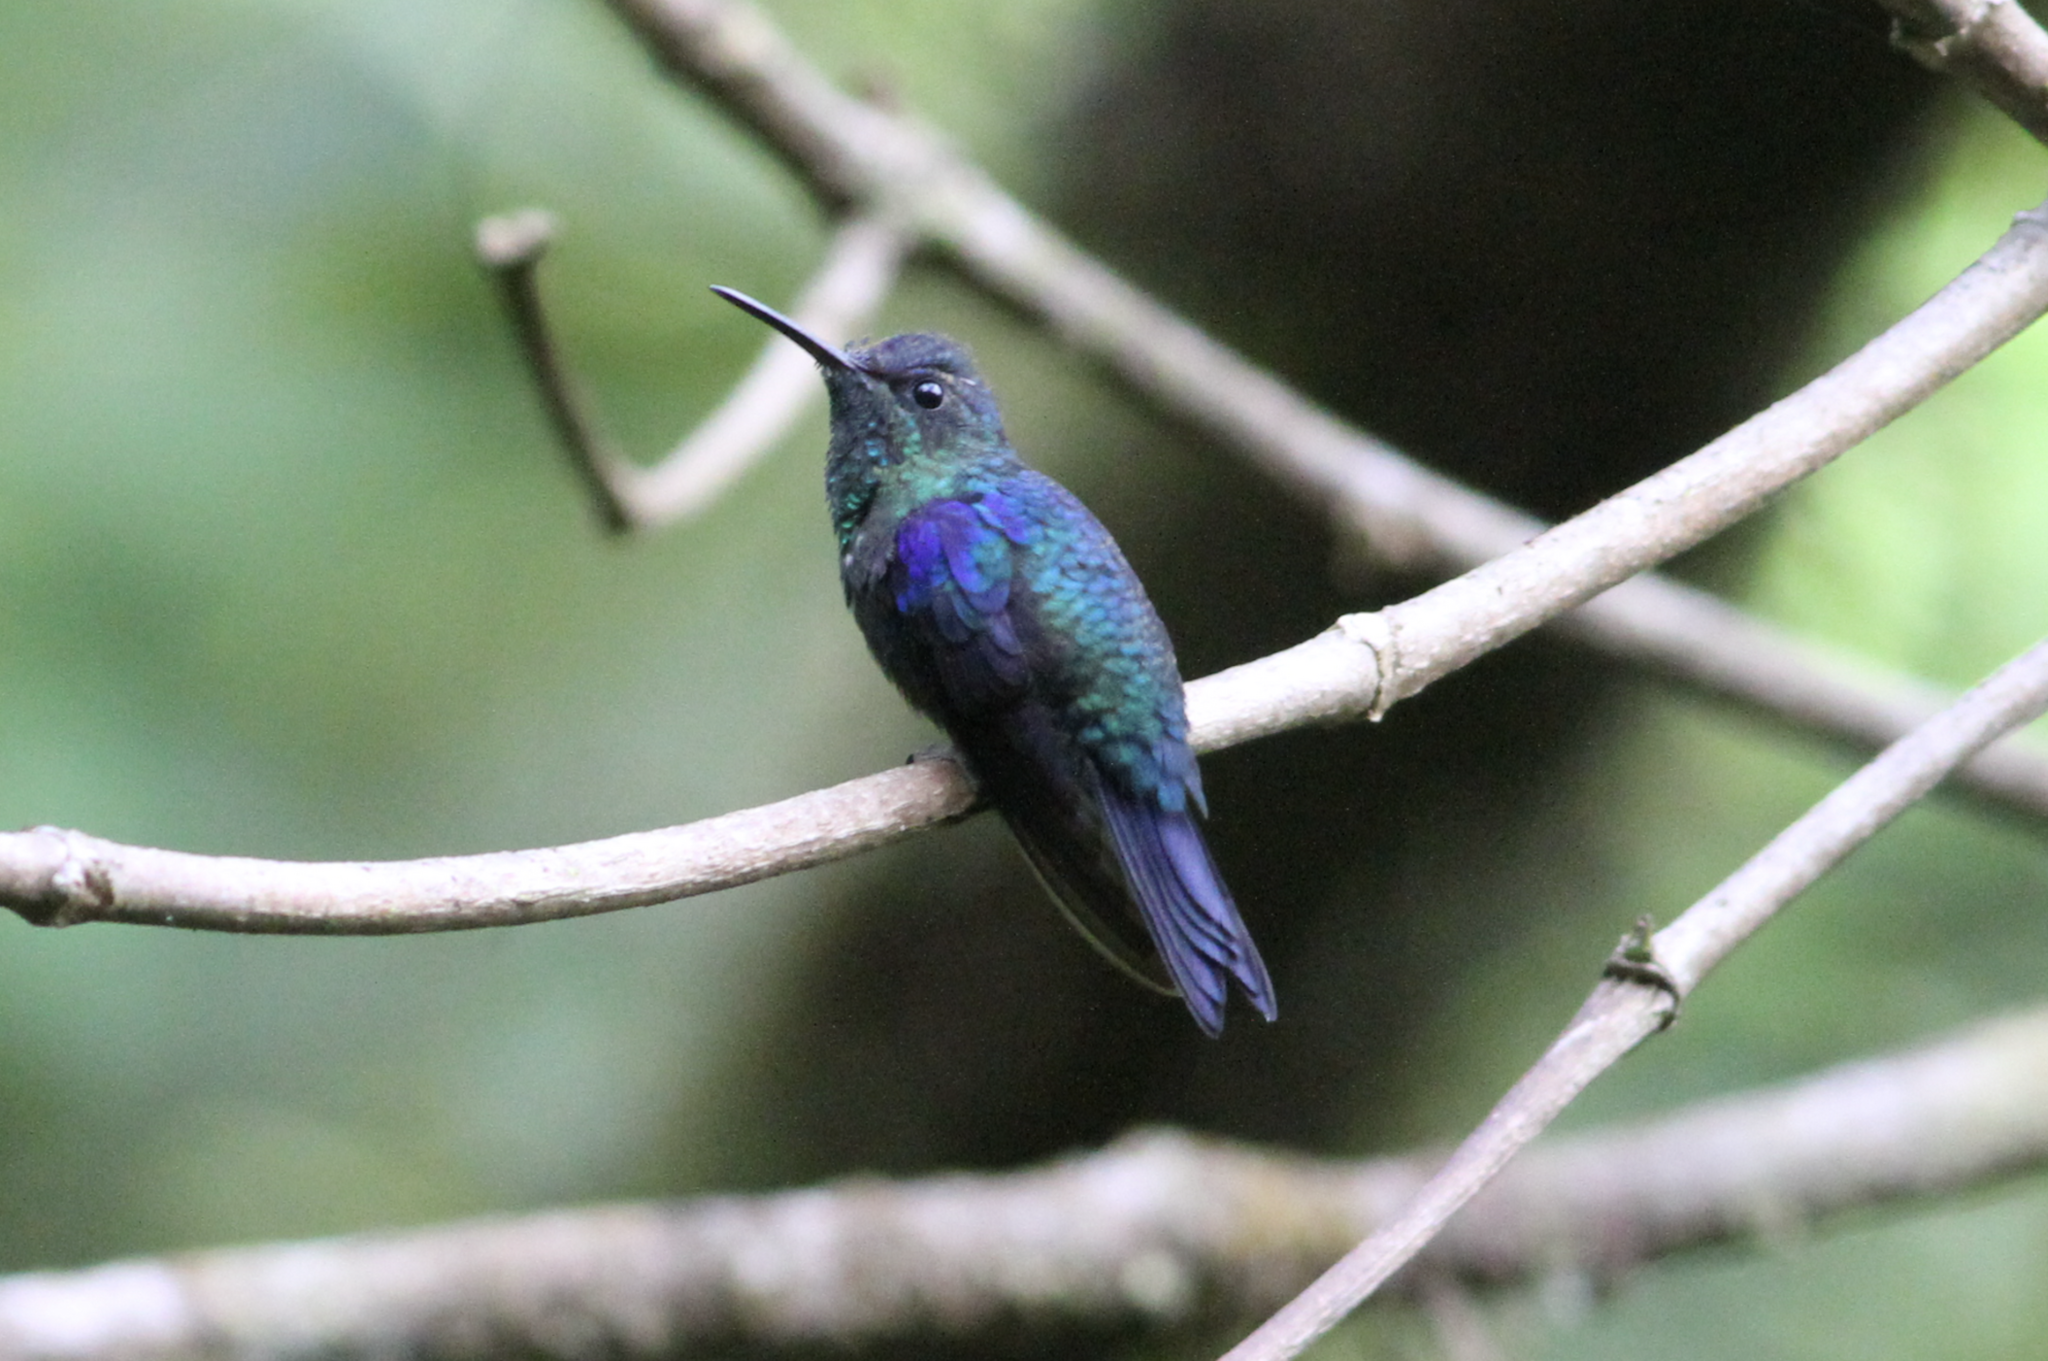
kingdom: Animalia
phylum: Chordata
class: Aves
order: Apodiformes
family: Trochilidae
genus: Thalurania
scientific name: Thalurania colombica
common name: Crowned woodnymph
